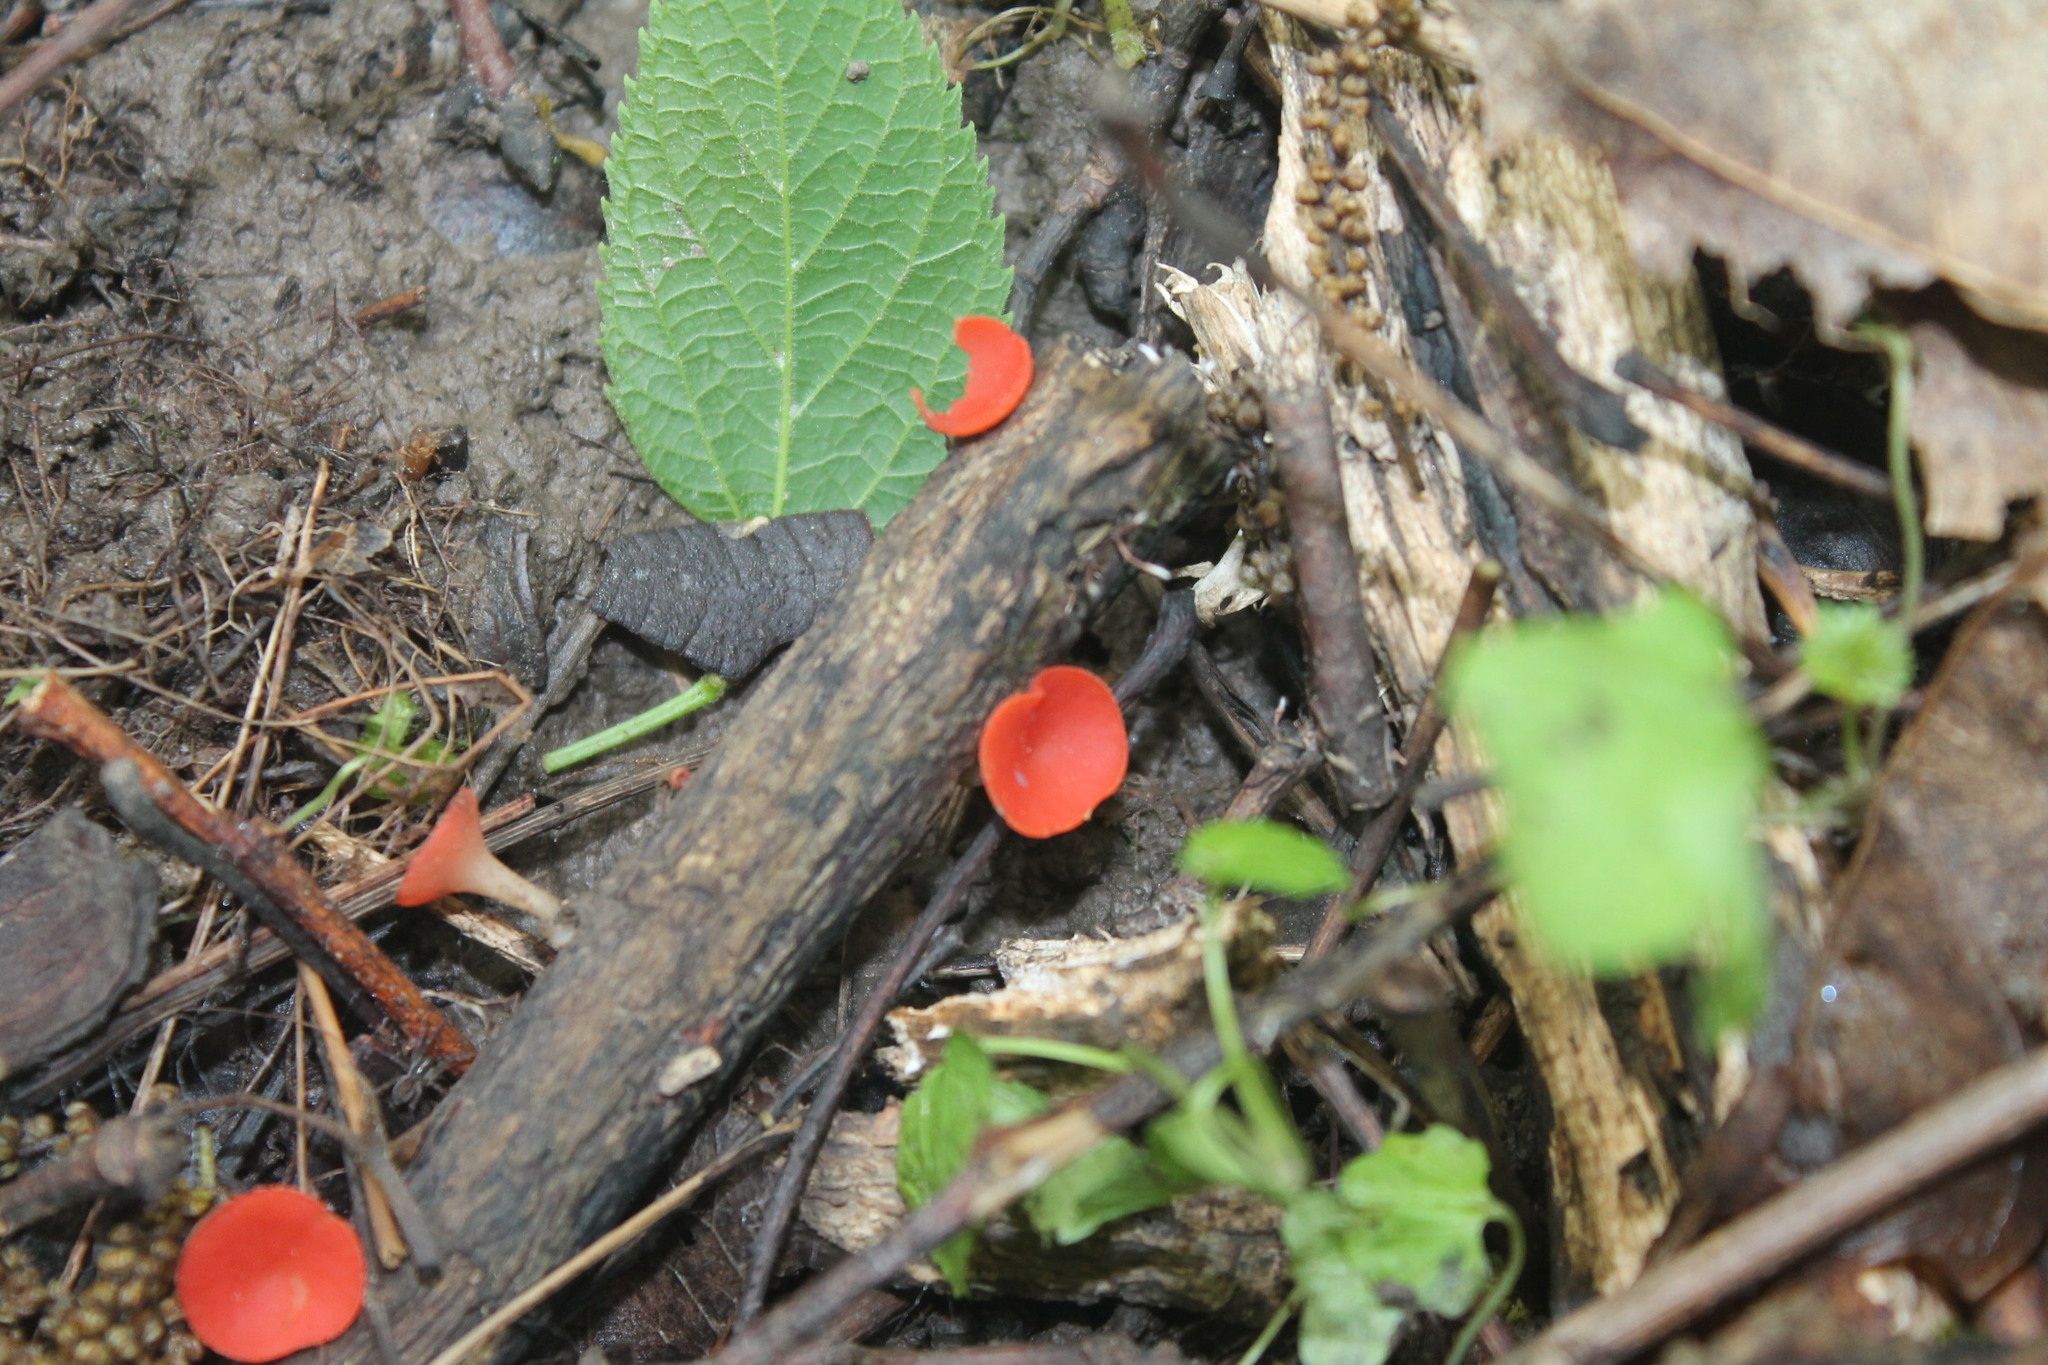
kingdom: Fungi
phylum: Ascomycota
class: Pezizomycetes
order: Pezizales
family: Sarcoscyphaceae
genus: Sarcoscypha
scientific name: Sarcoscypha occidentalis
